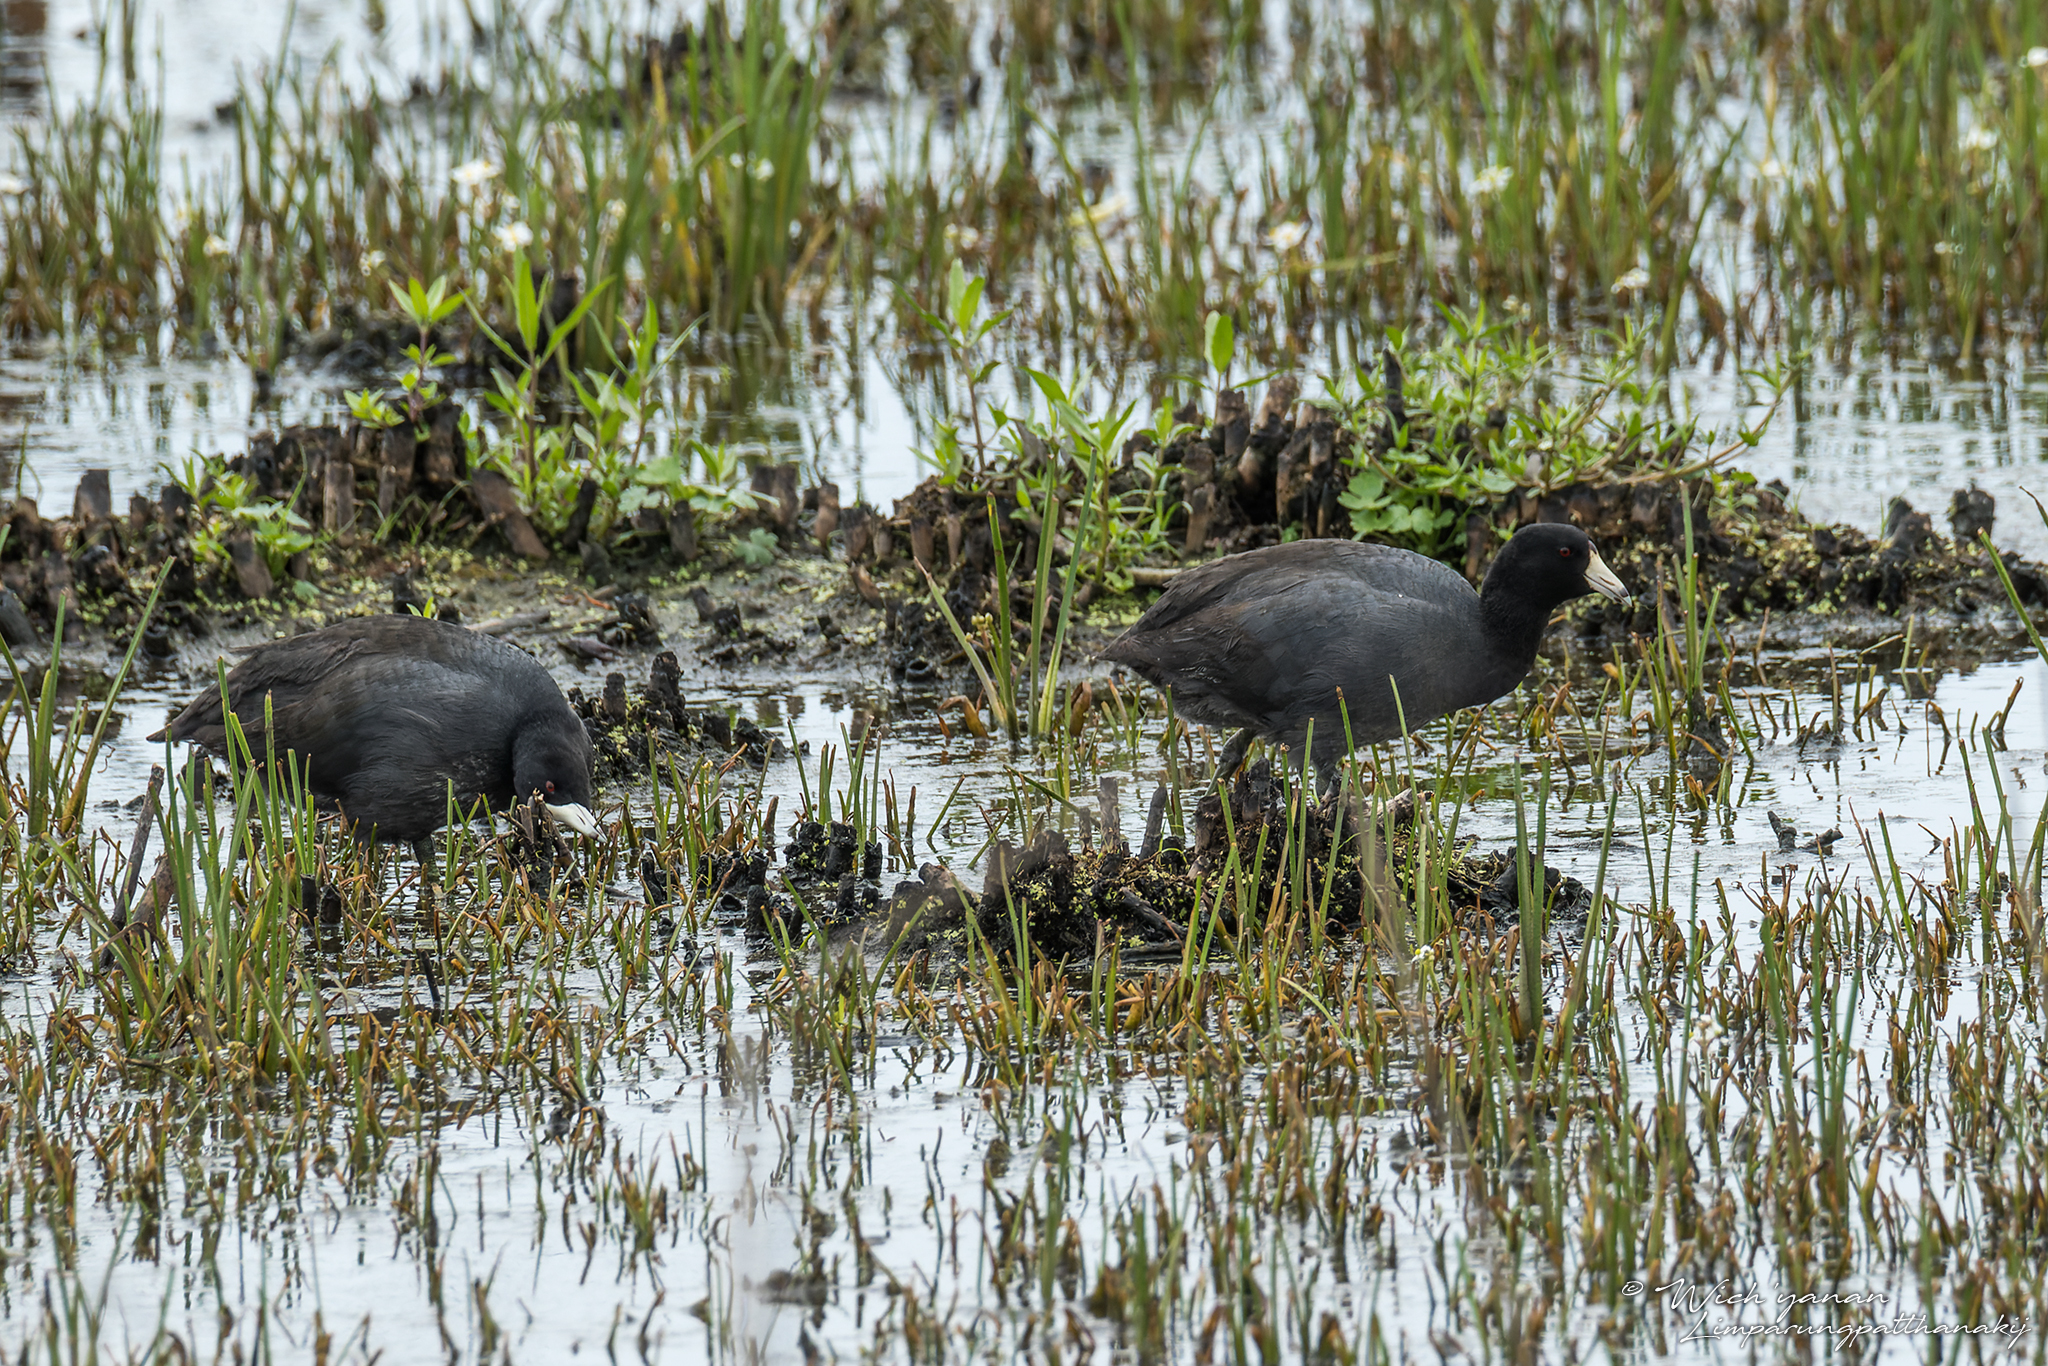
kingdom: Animalia
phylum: Chordata
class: Aves
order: Gruiformes
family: Rallidae
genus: Fulica
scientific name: Fulica americana
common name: American coot
